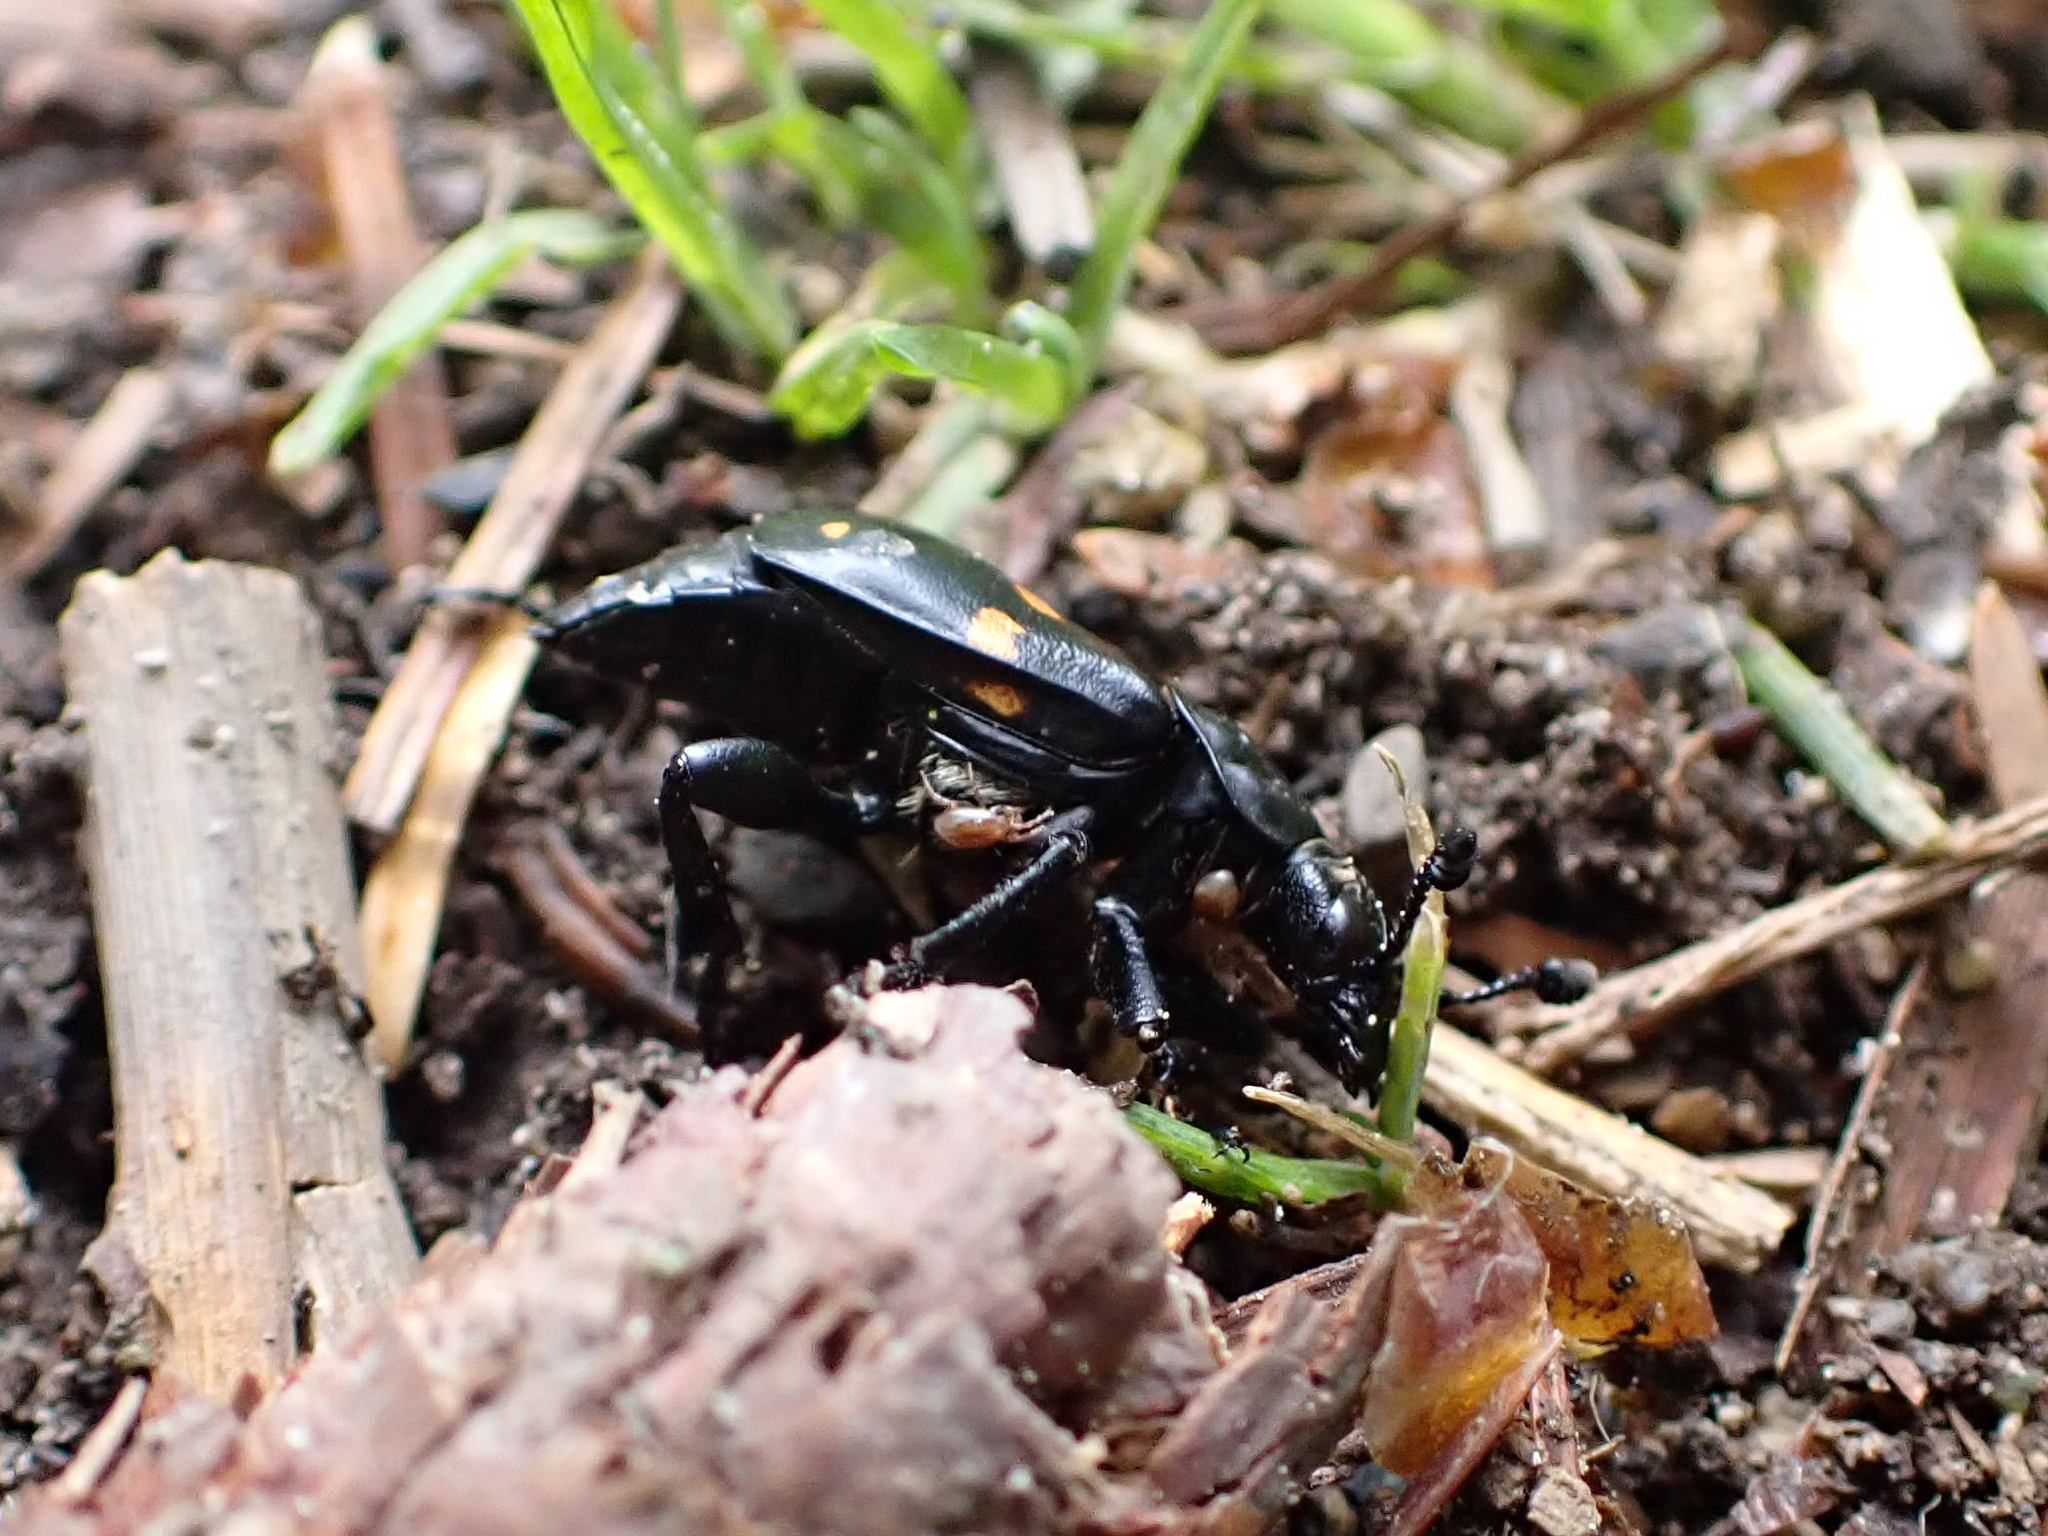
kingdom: Animalia
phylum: Arthropoda
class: Insecta
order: Coleoptera
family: Staphylinidae
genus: Nicrophorus
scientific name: Nicrophorus defodiens
